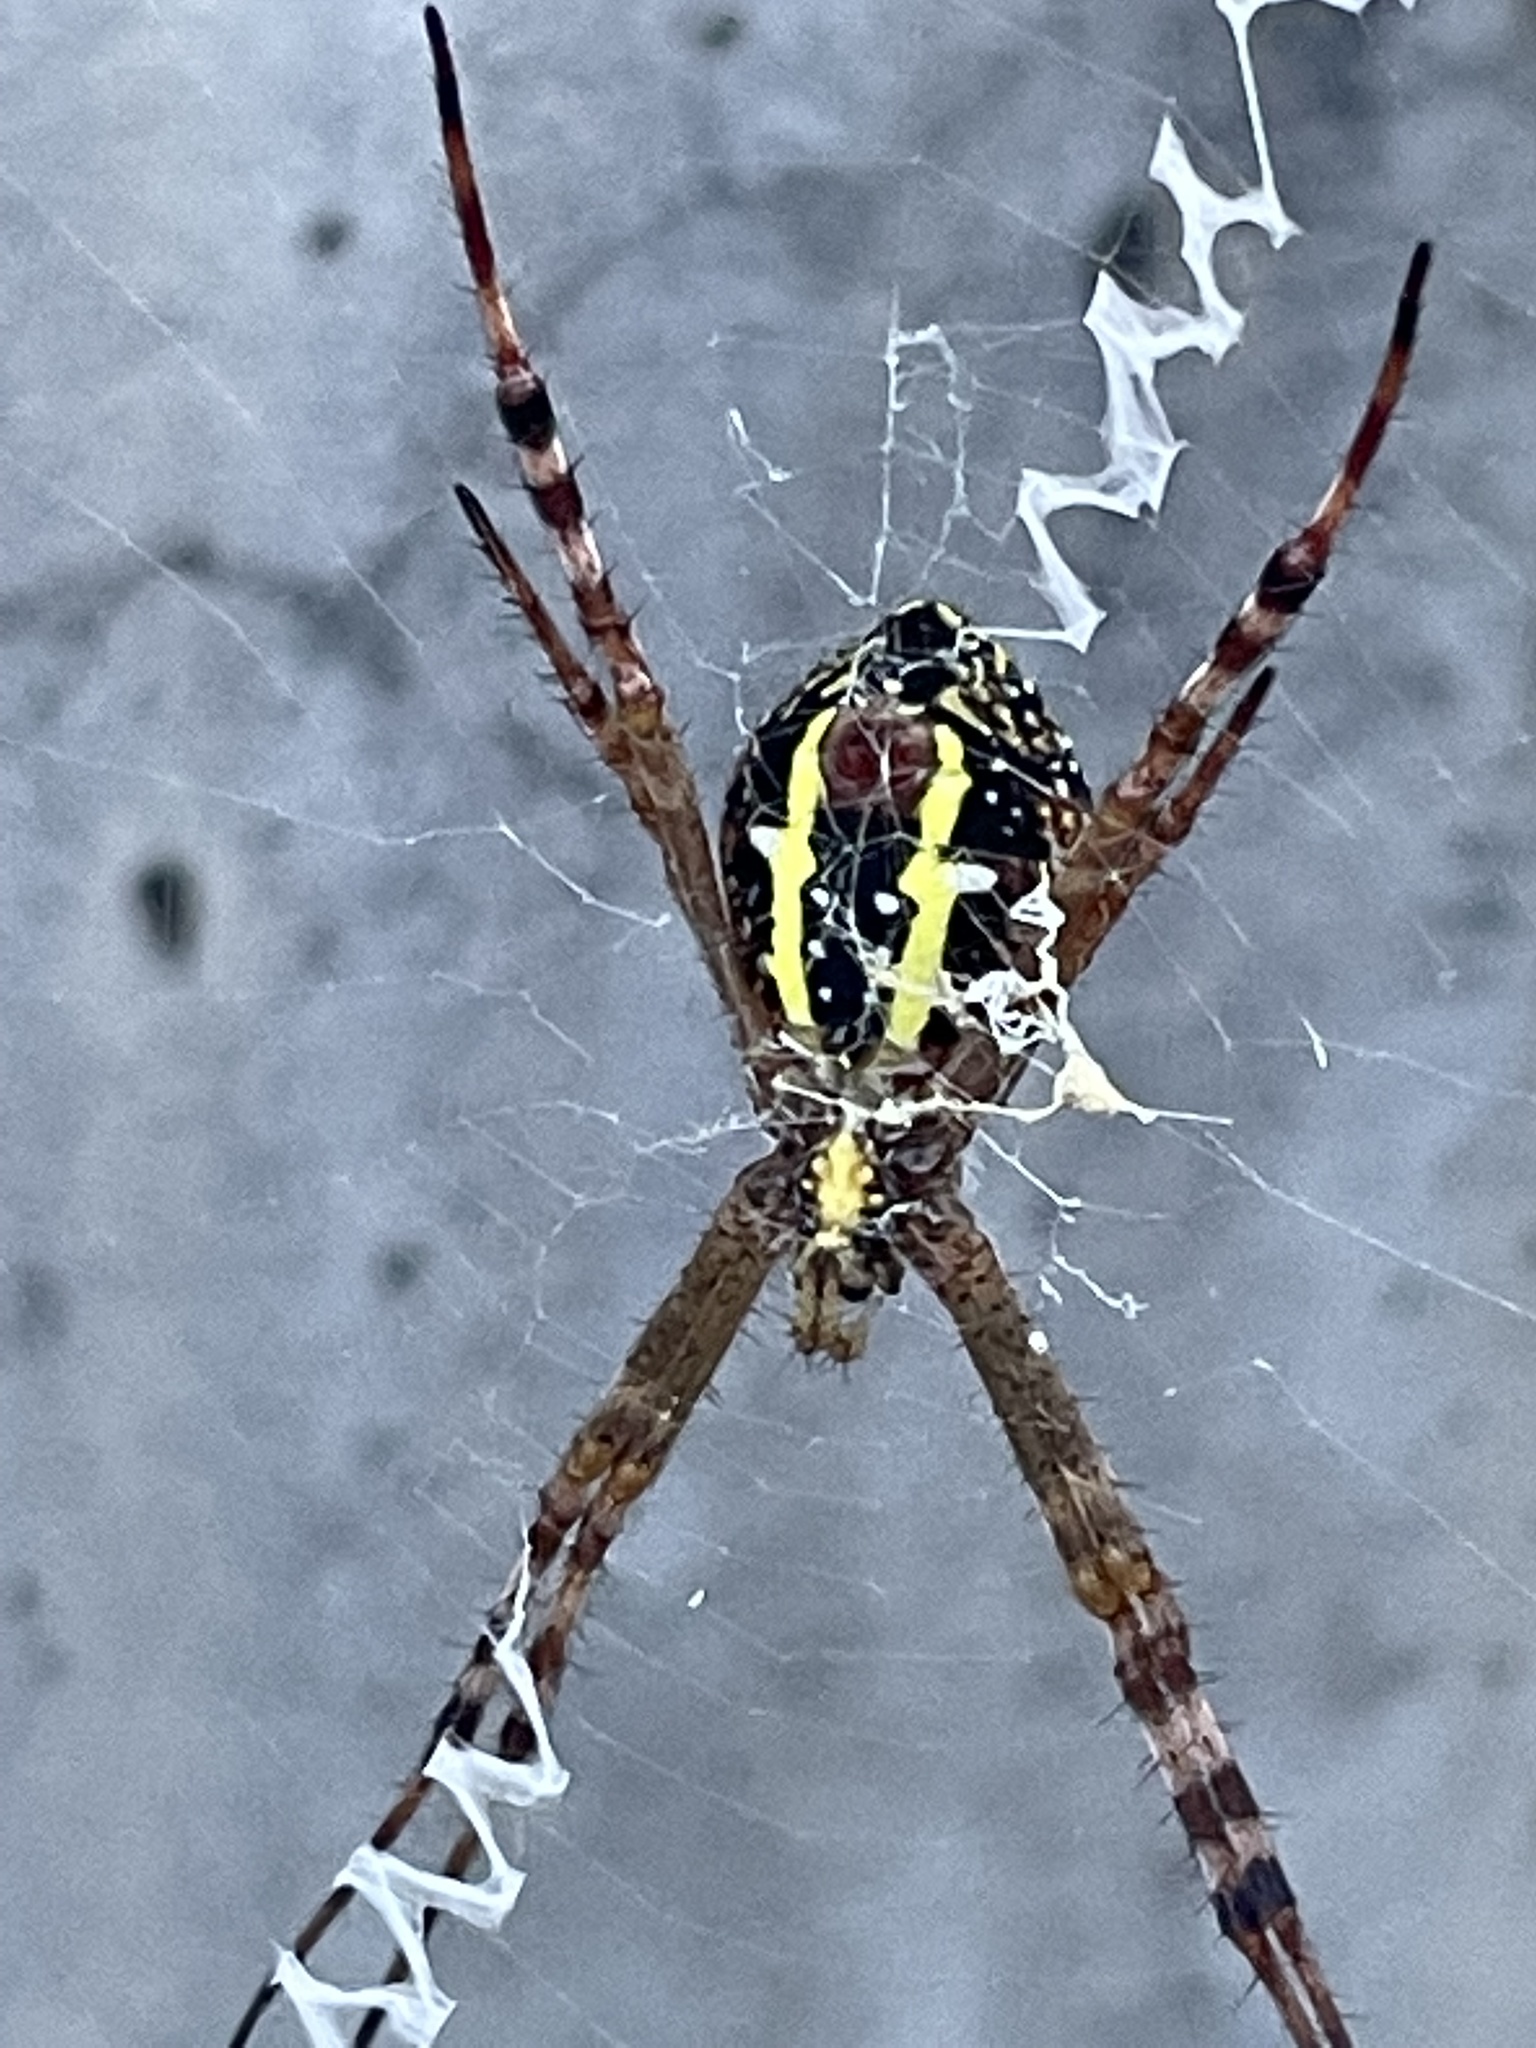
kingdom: Animalia
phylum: Arthropoda
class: Arachnida
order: Araneae
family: Araneidae
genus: Argiope
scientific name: Argiope picta
